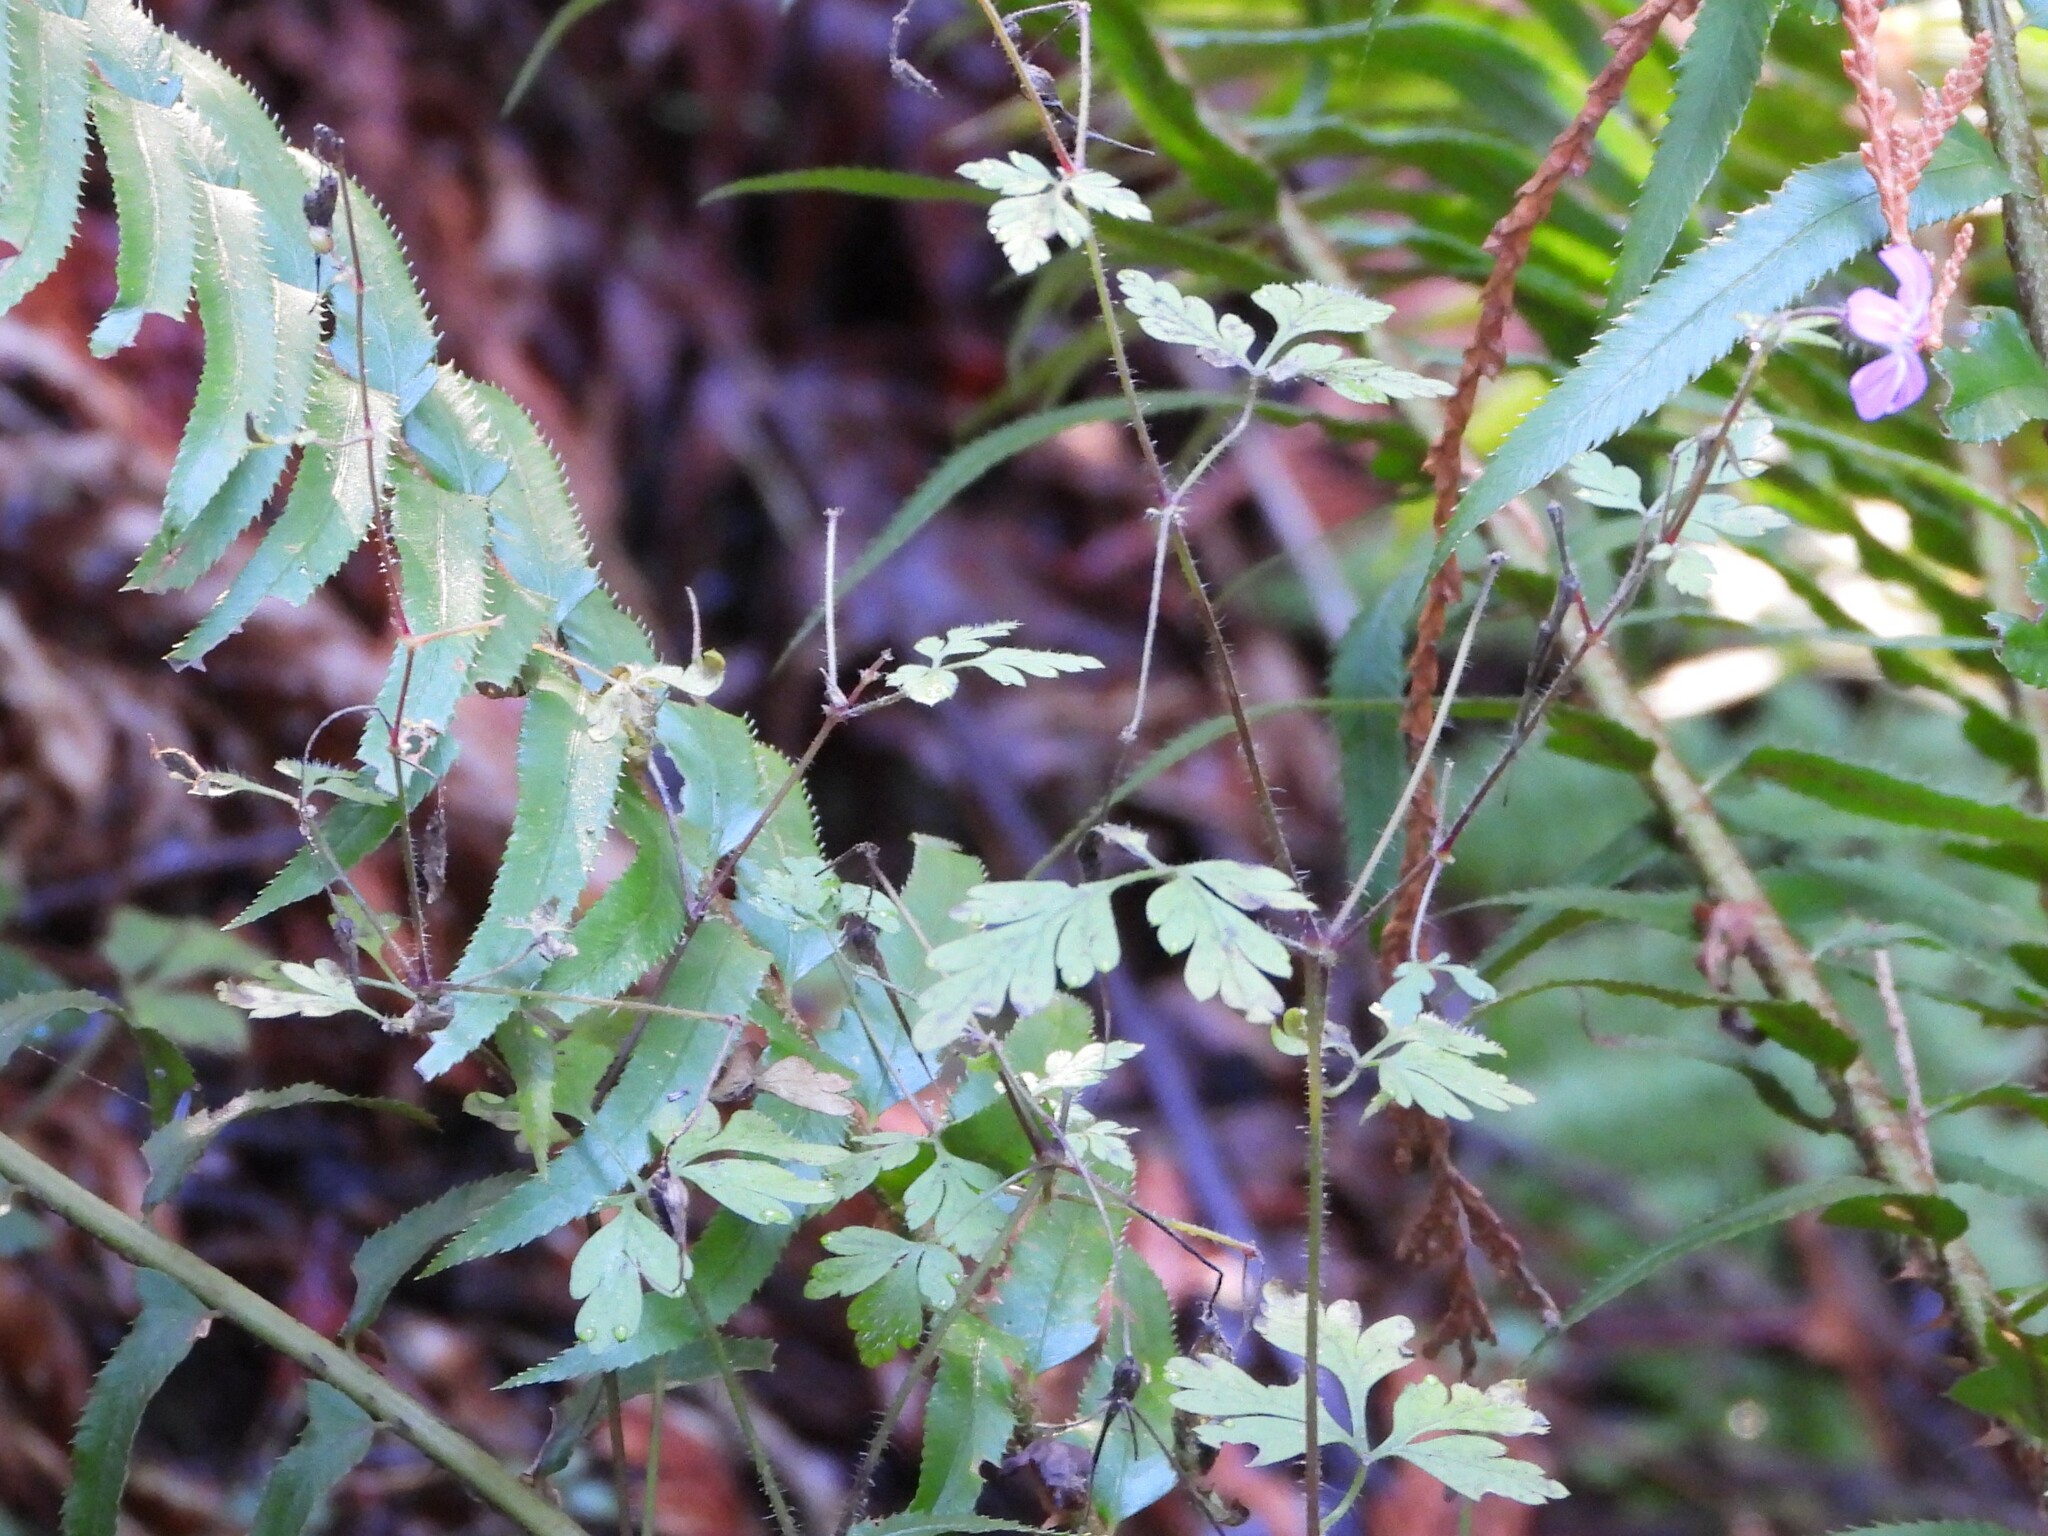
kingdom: Plantae
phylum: Tracheophyta
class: Magnoliopsida
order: Geraniales
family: Geraniaceae
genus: Geranium
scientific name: Geranium robertianum
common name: Herb-robert
